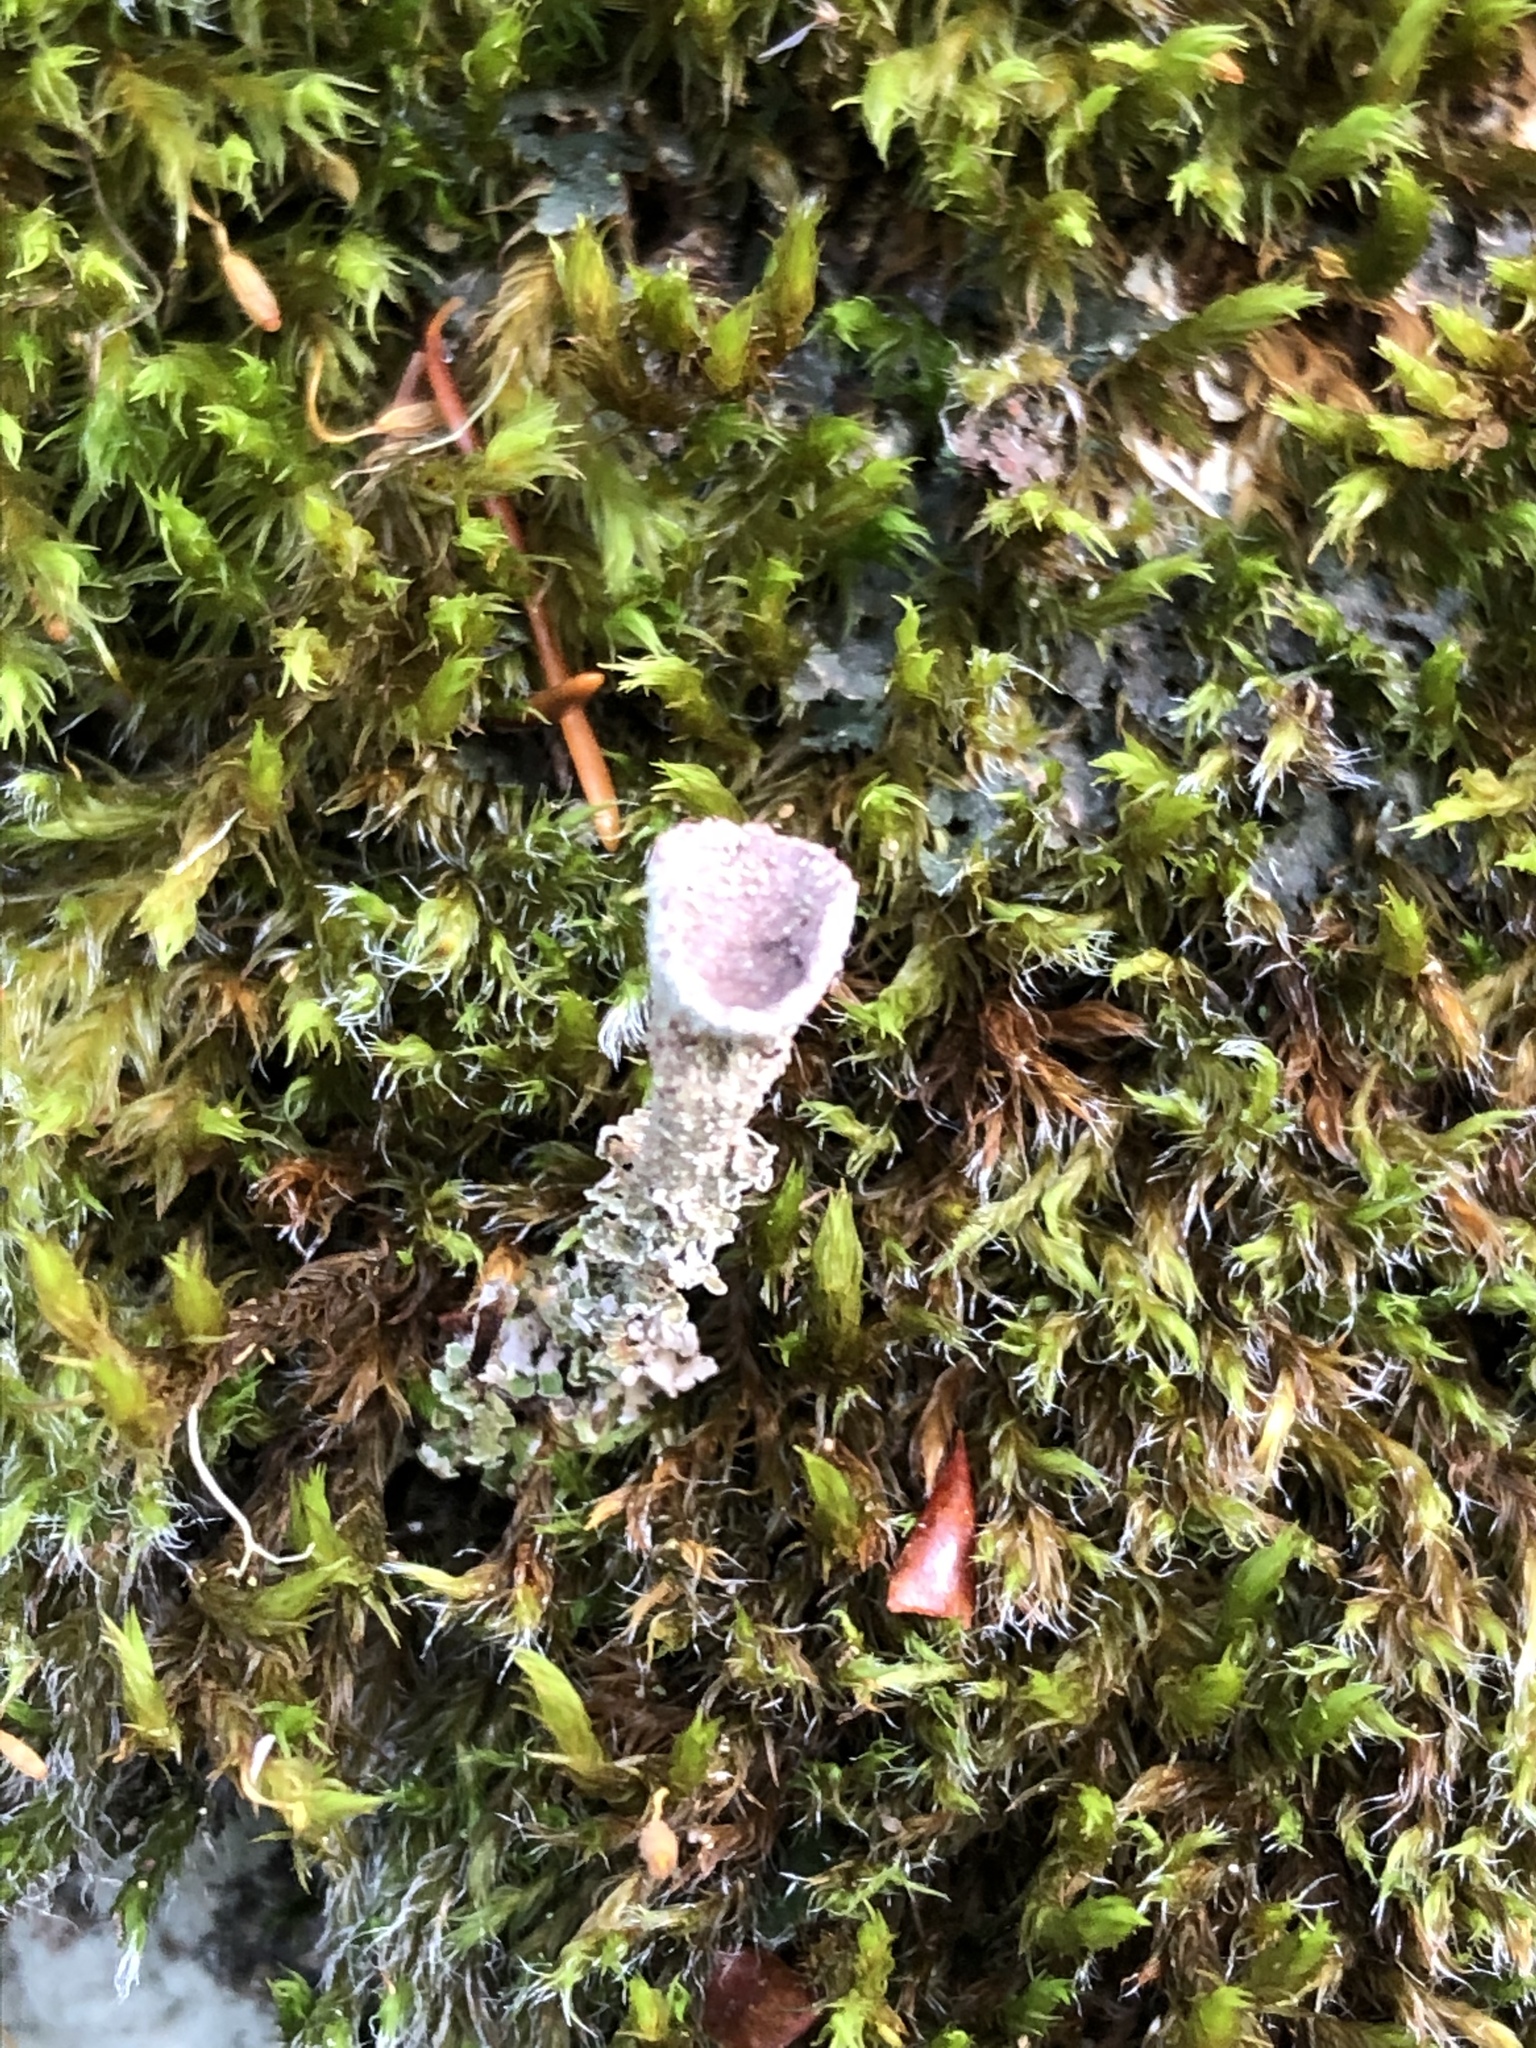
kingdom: Fungi
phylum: Ascomycota
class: Lecanoromycetes
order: Lecanorales
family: Cladoniaceae
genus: Cladonia
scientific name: Cladonia pyxidata
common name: Pebbled pixie cup
